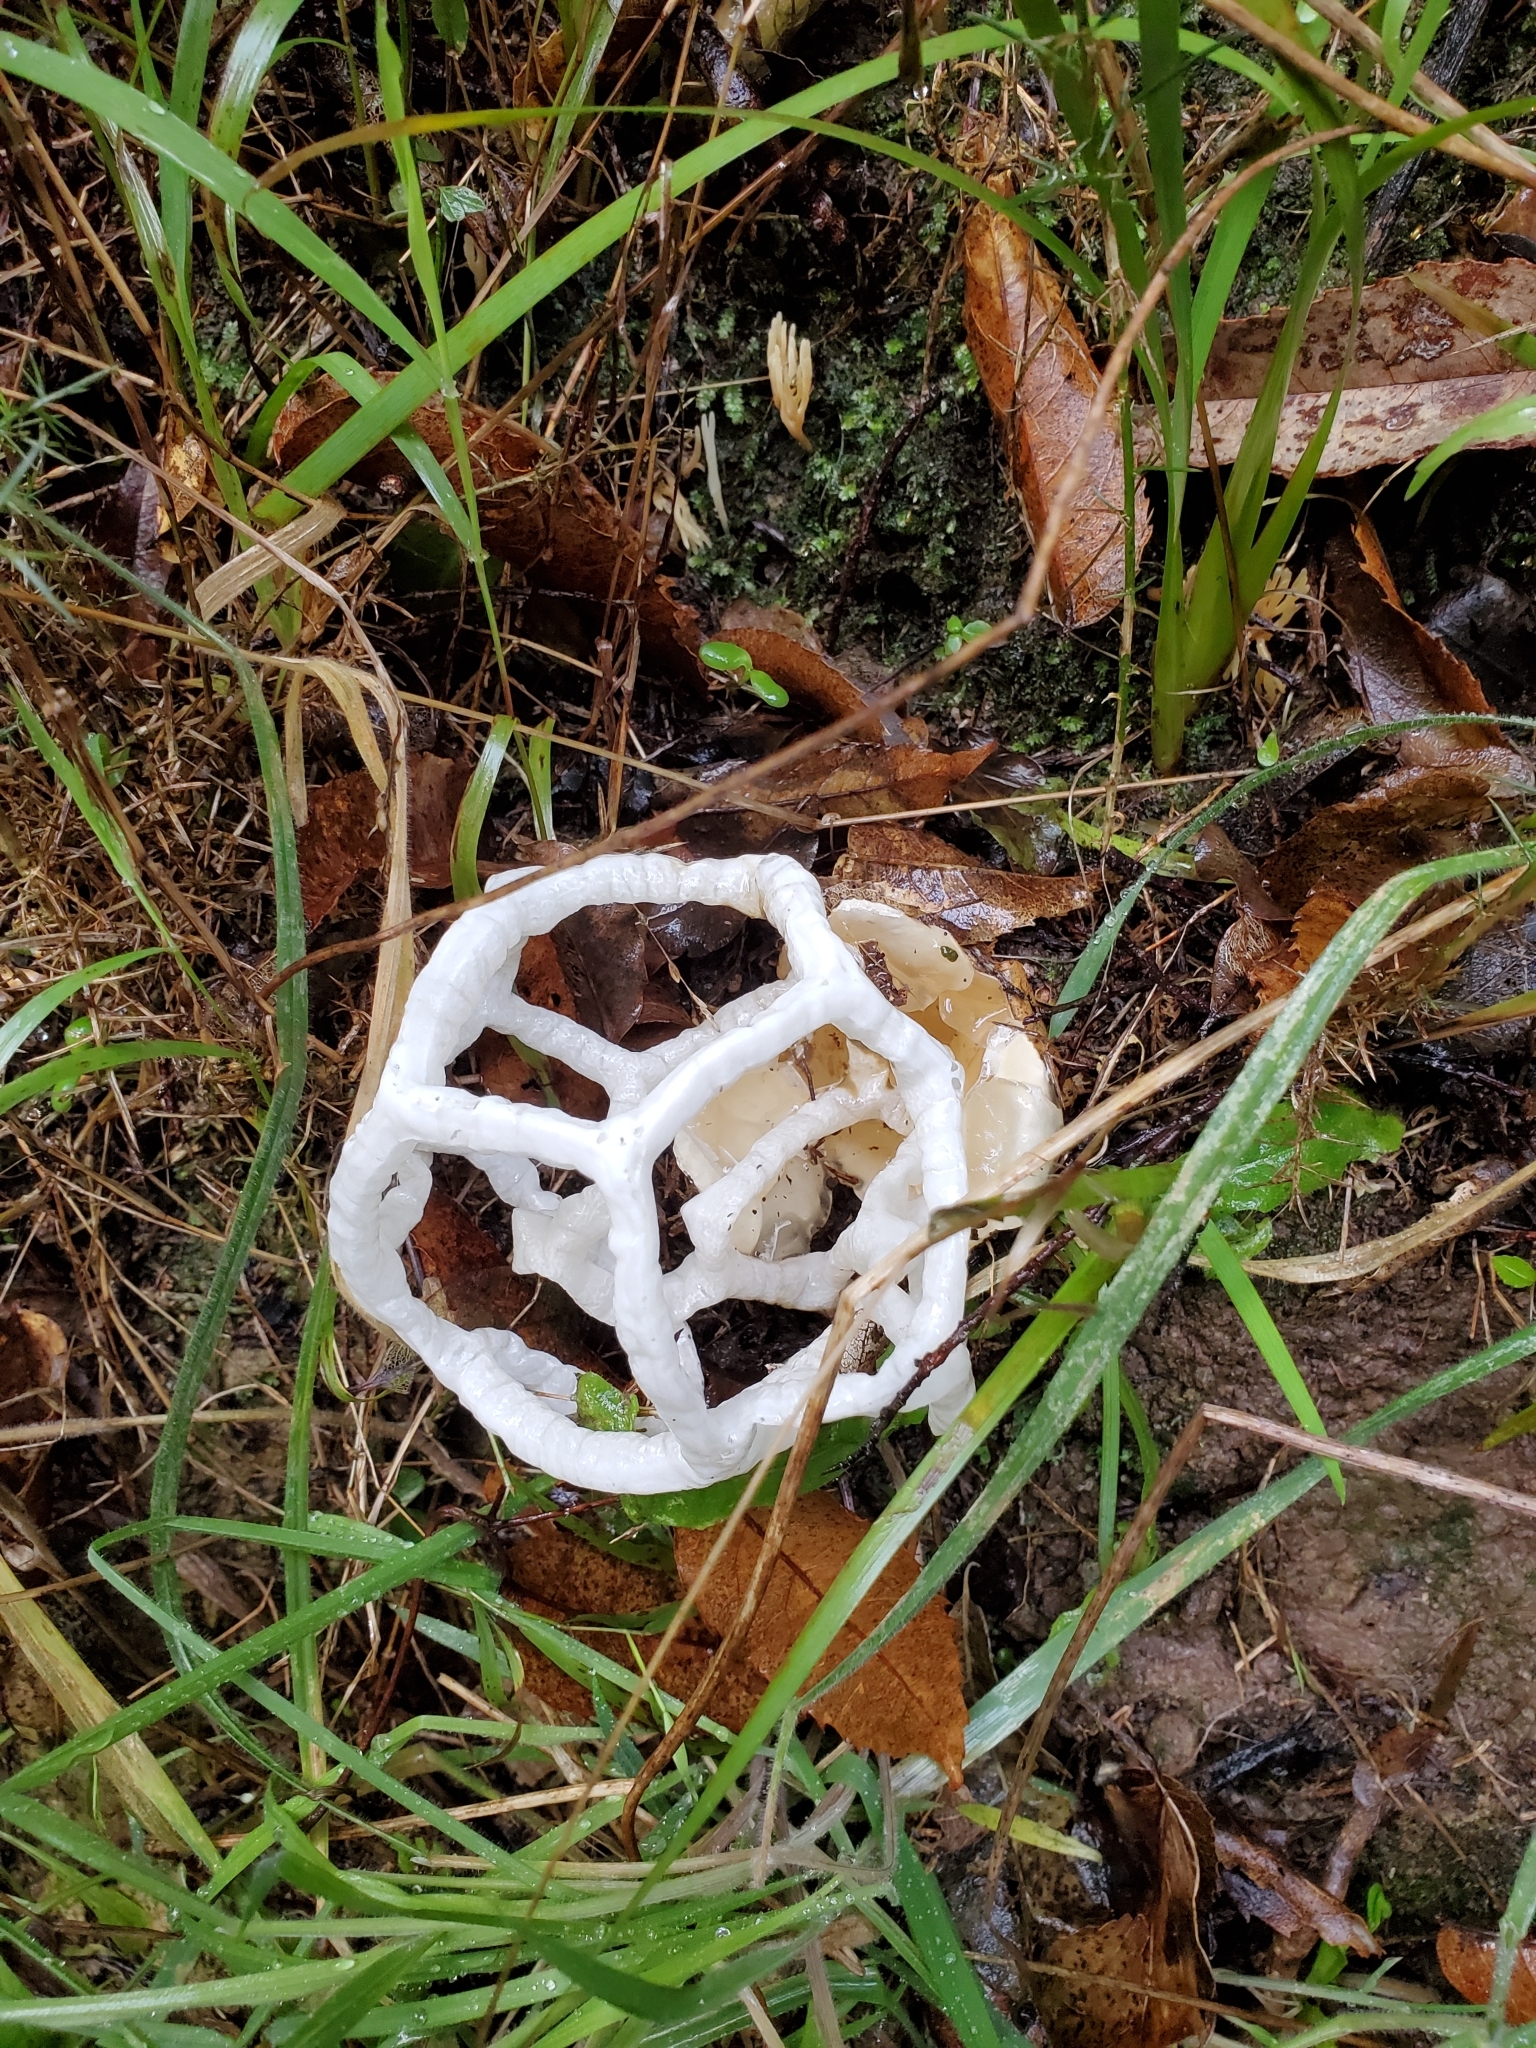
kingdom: Fungi
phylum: Basidiomycota
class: Agaricomycetes
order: Phallales
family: Phallaceae
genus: Ileodictyon
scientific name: Ileodictyon cibarium
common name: Basket fungus
